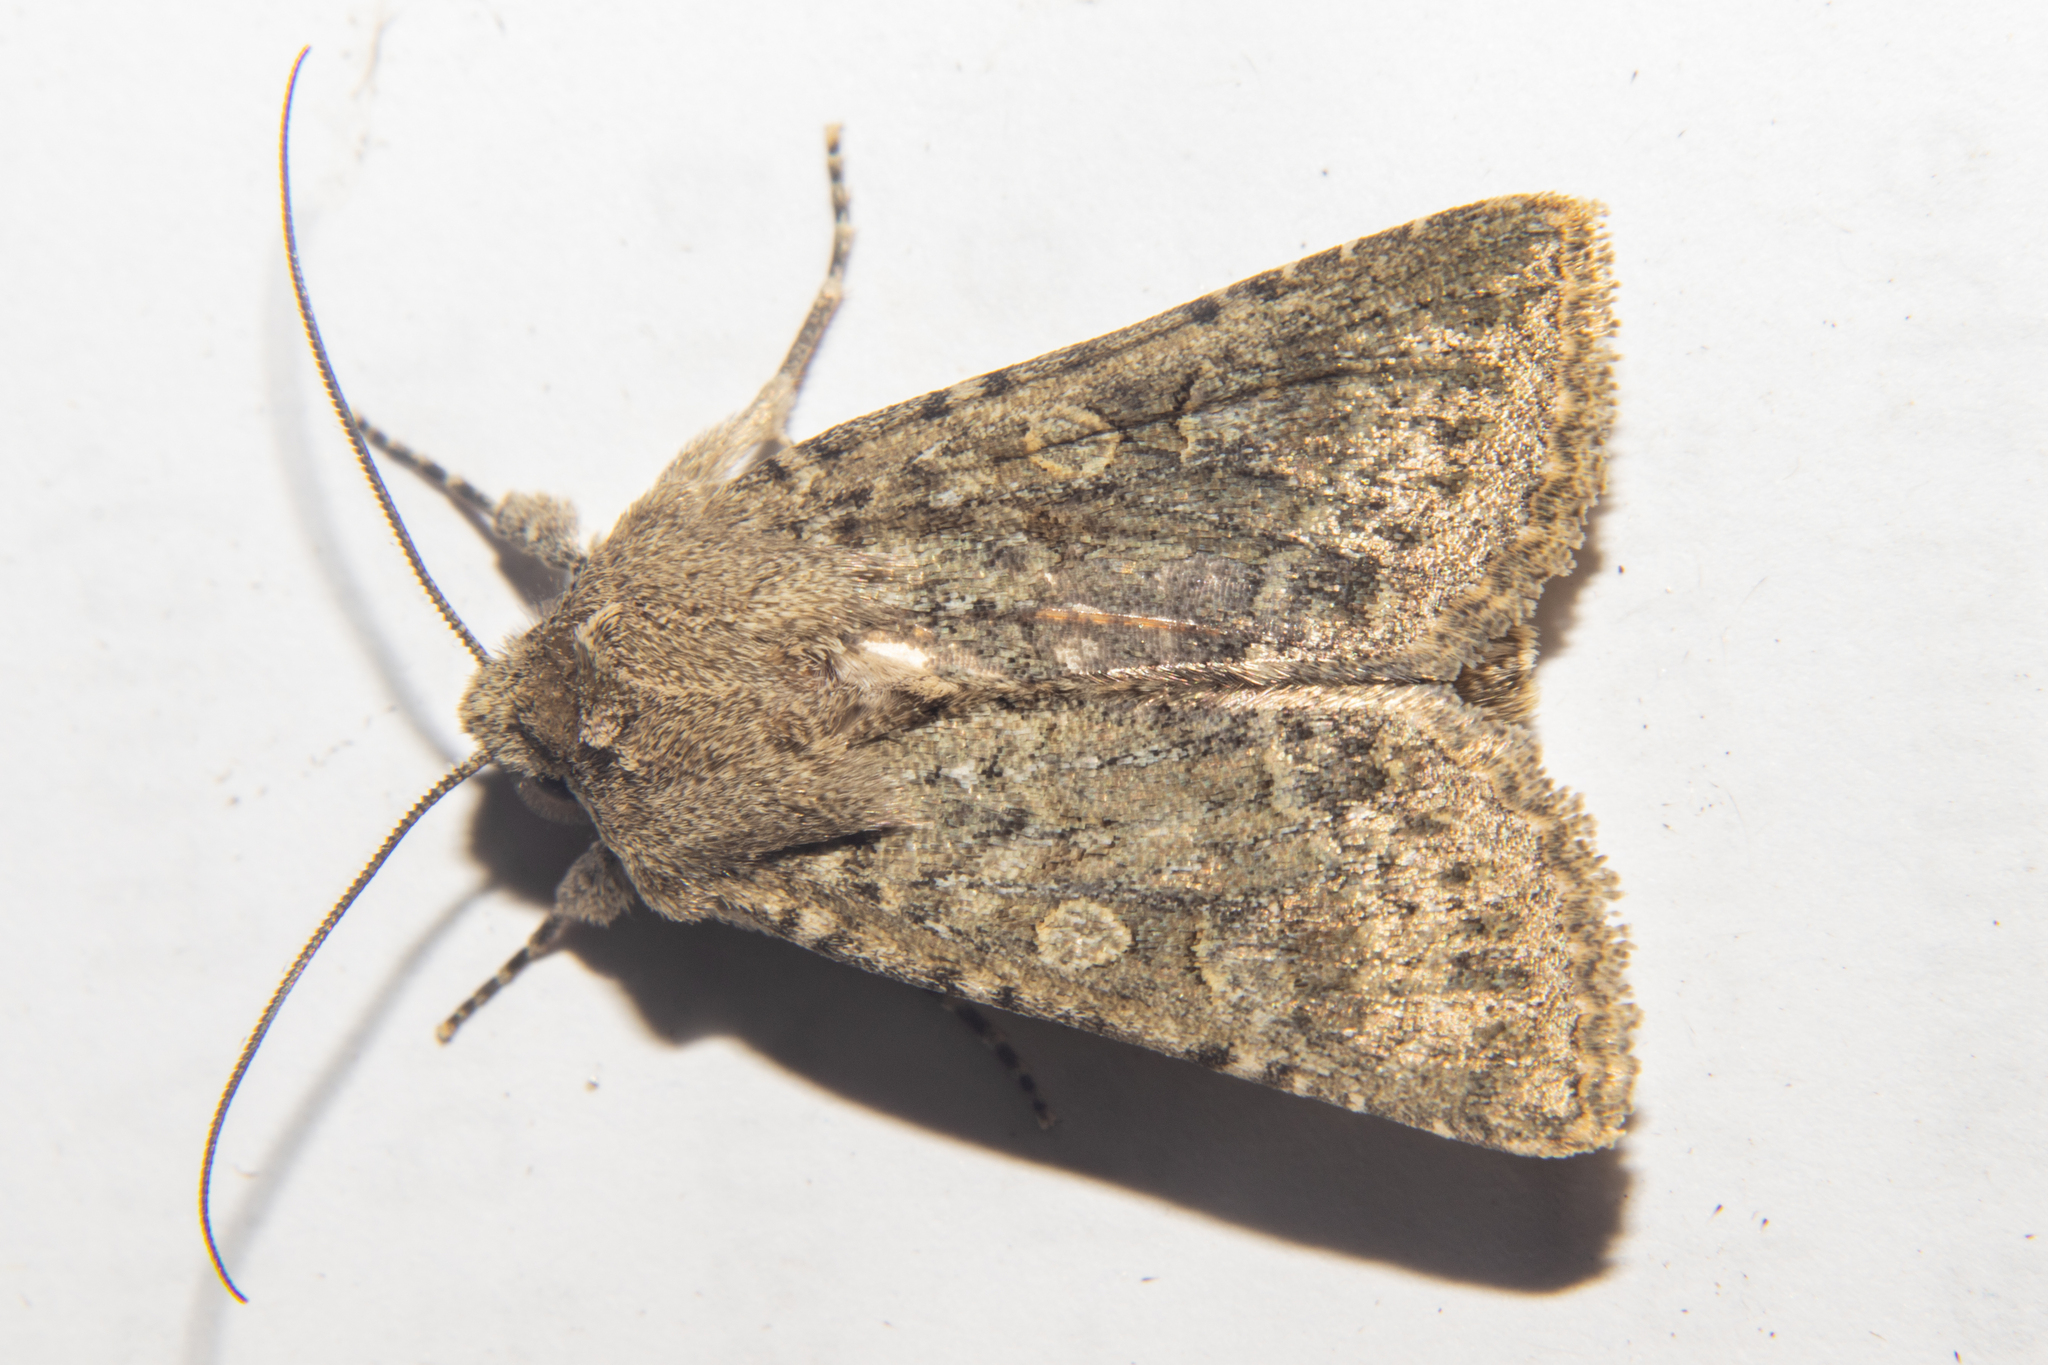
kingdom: Animalia
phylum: Arthropoda
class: Insecta
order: Lepidoptera
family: Noctuidae
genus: Physetica
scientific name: Physetica
